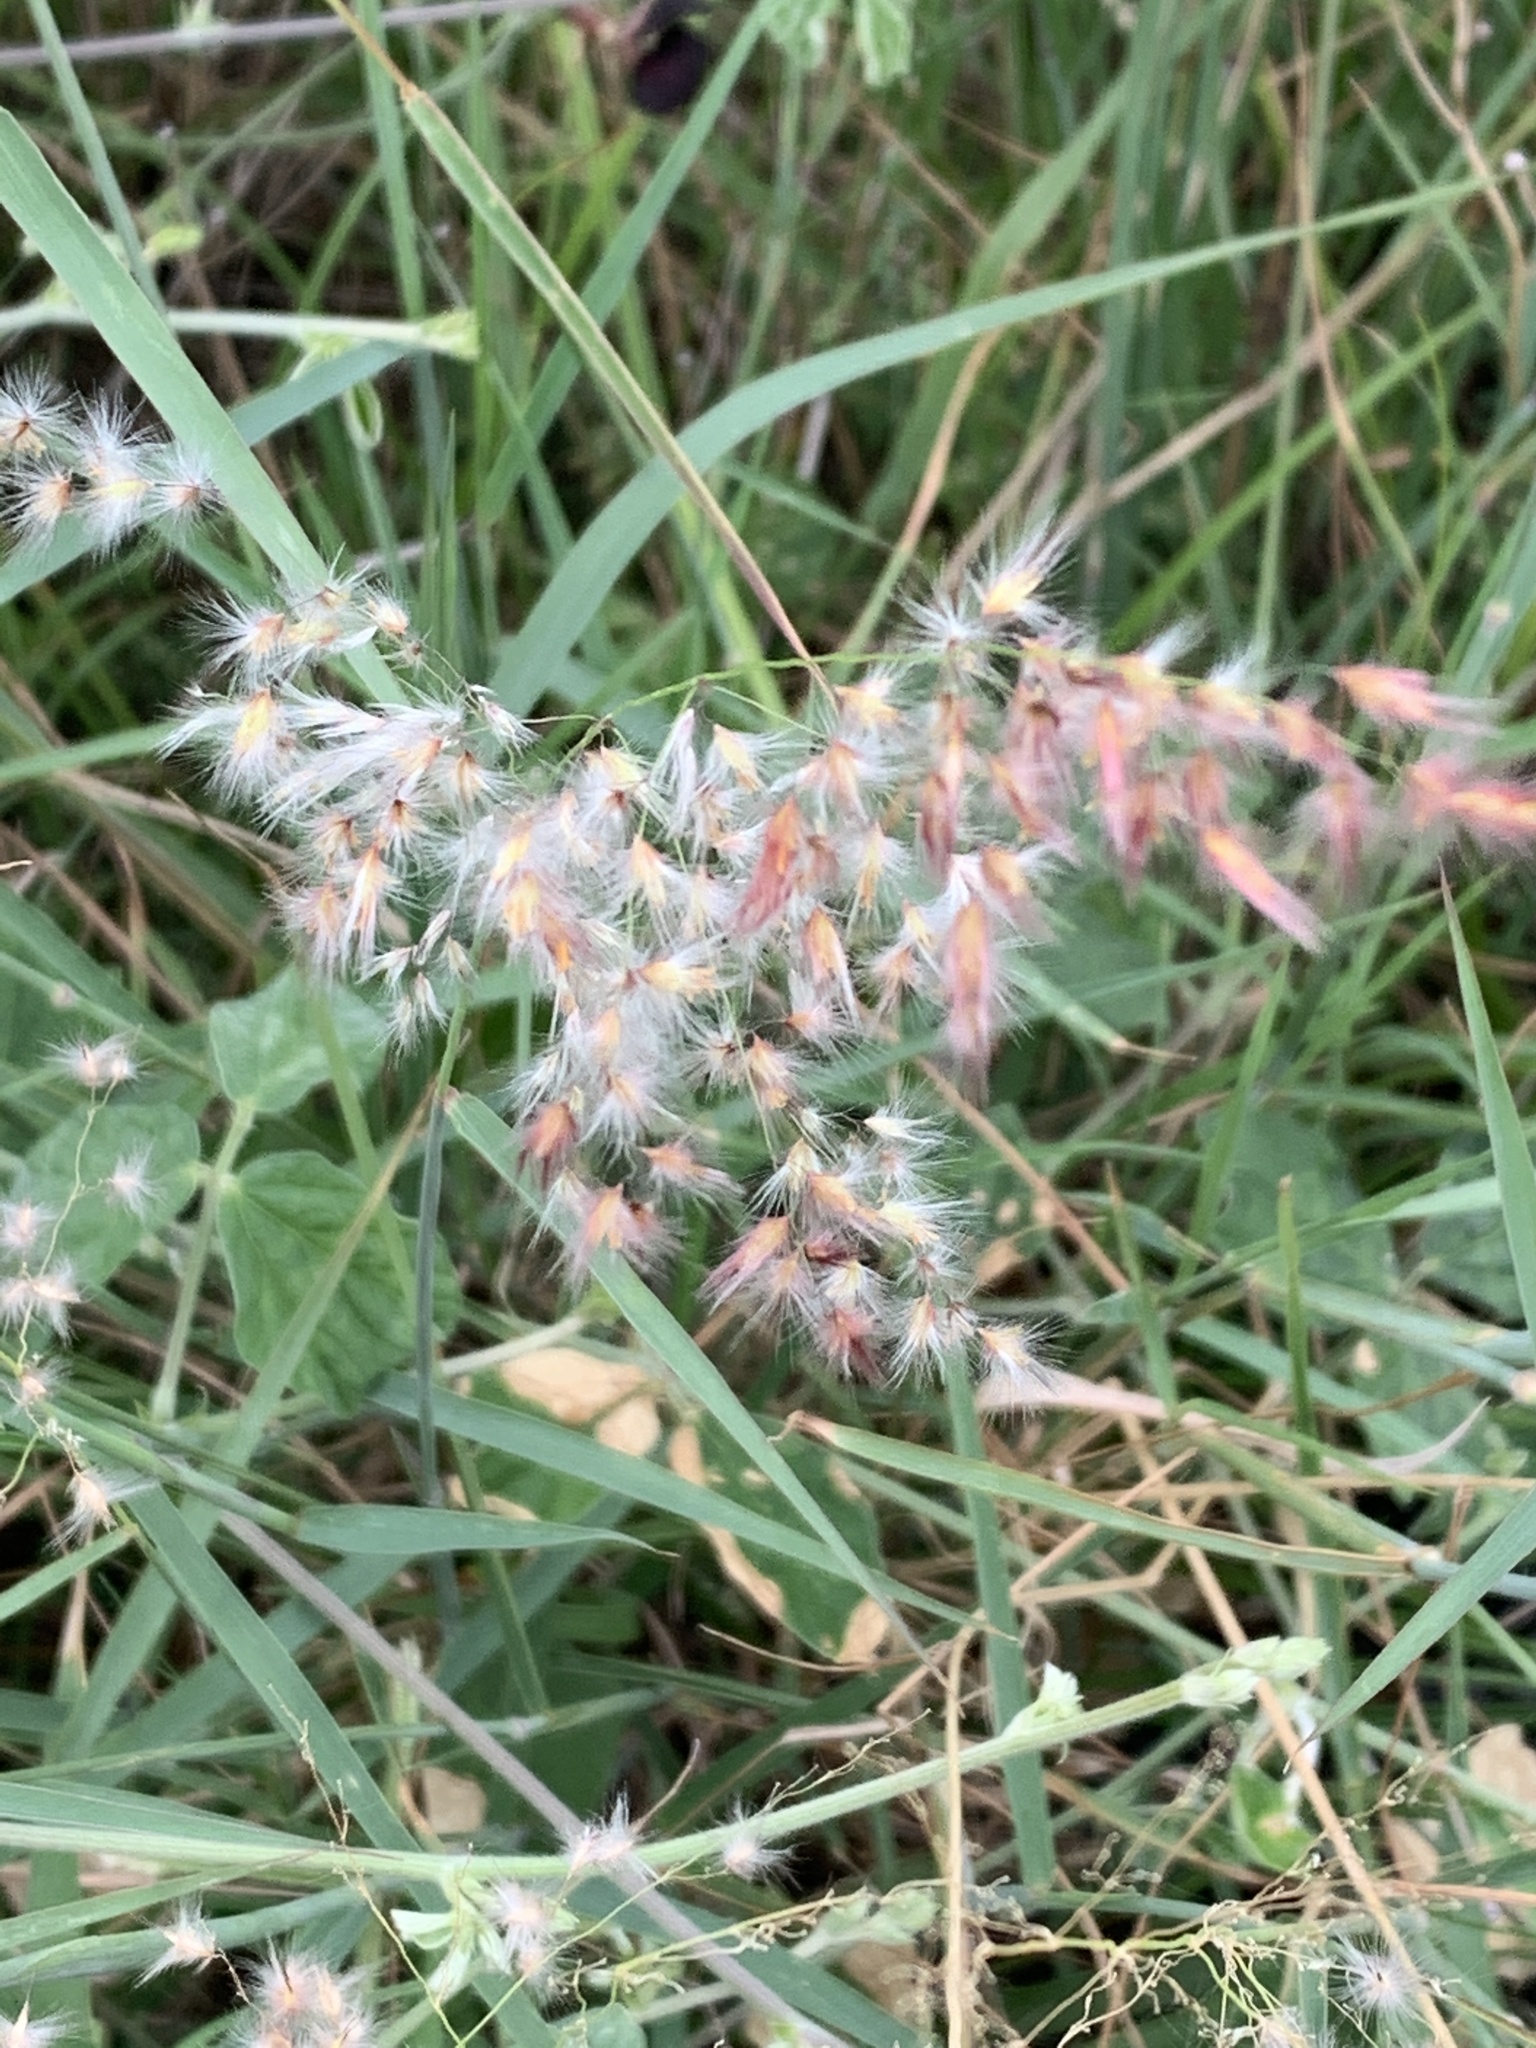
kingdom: Plantae
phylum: Tracheophyta
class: Liliopsida
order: Poales
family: Poaceae
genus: Melinis
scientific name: Melinis repens
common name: Rose natal grass
